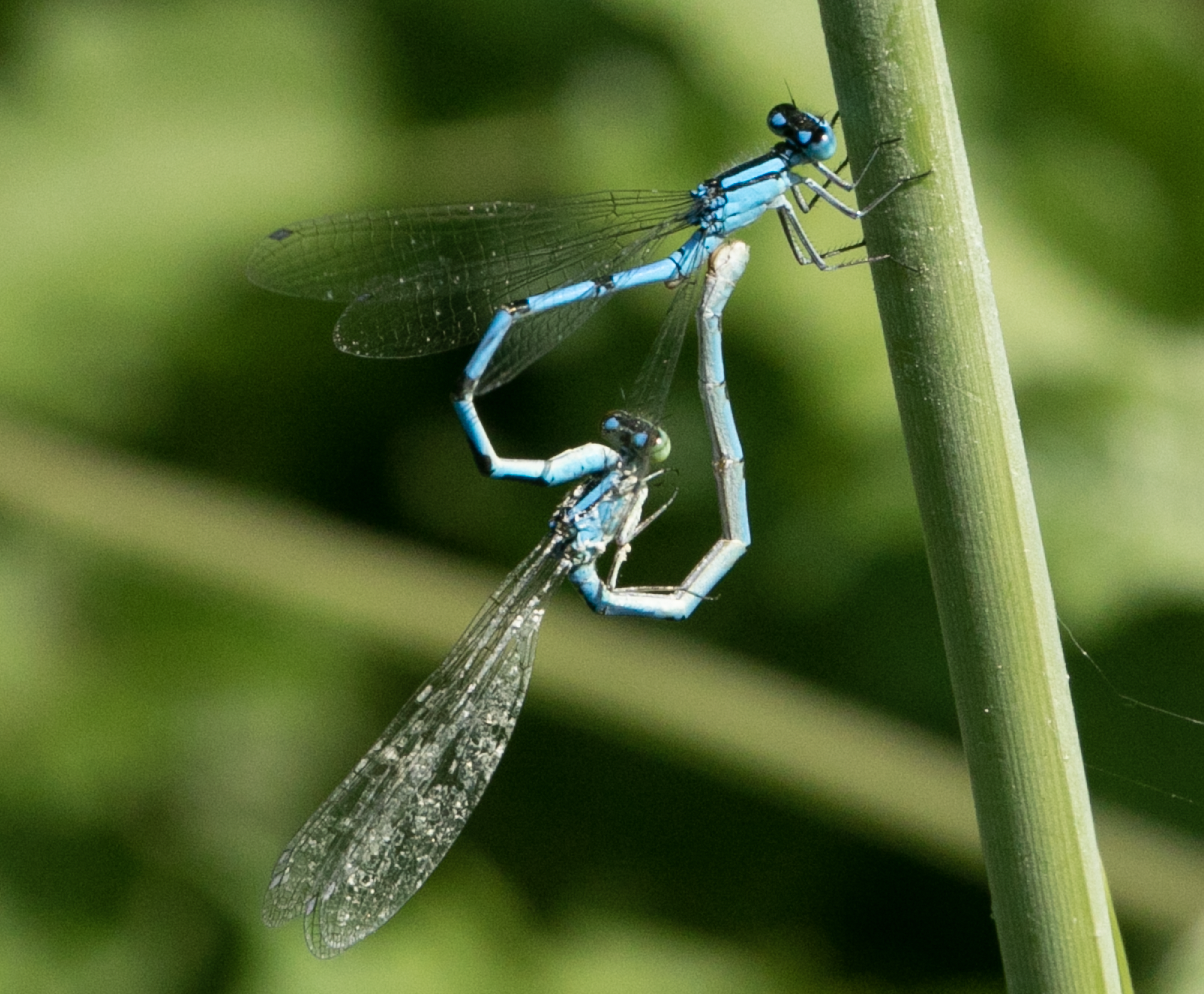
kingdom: Animalia
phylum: Arthropoda
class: Insecta
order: Odonata
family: Coenagrionidae
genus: Enallagma
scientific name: Enallagma cyathigerum
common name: Common blue damselfly
